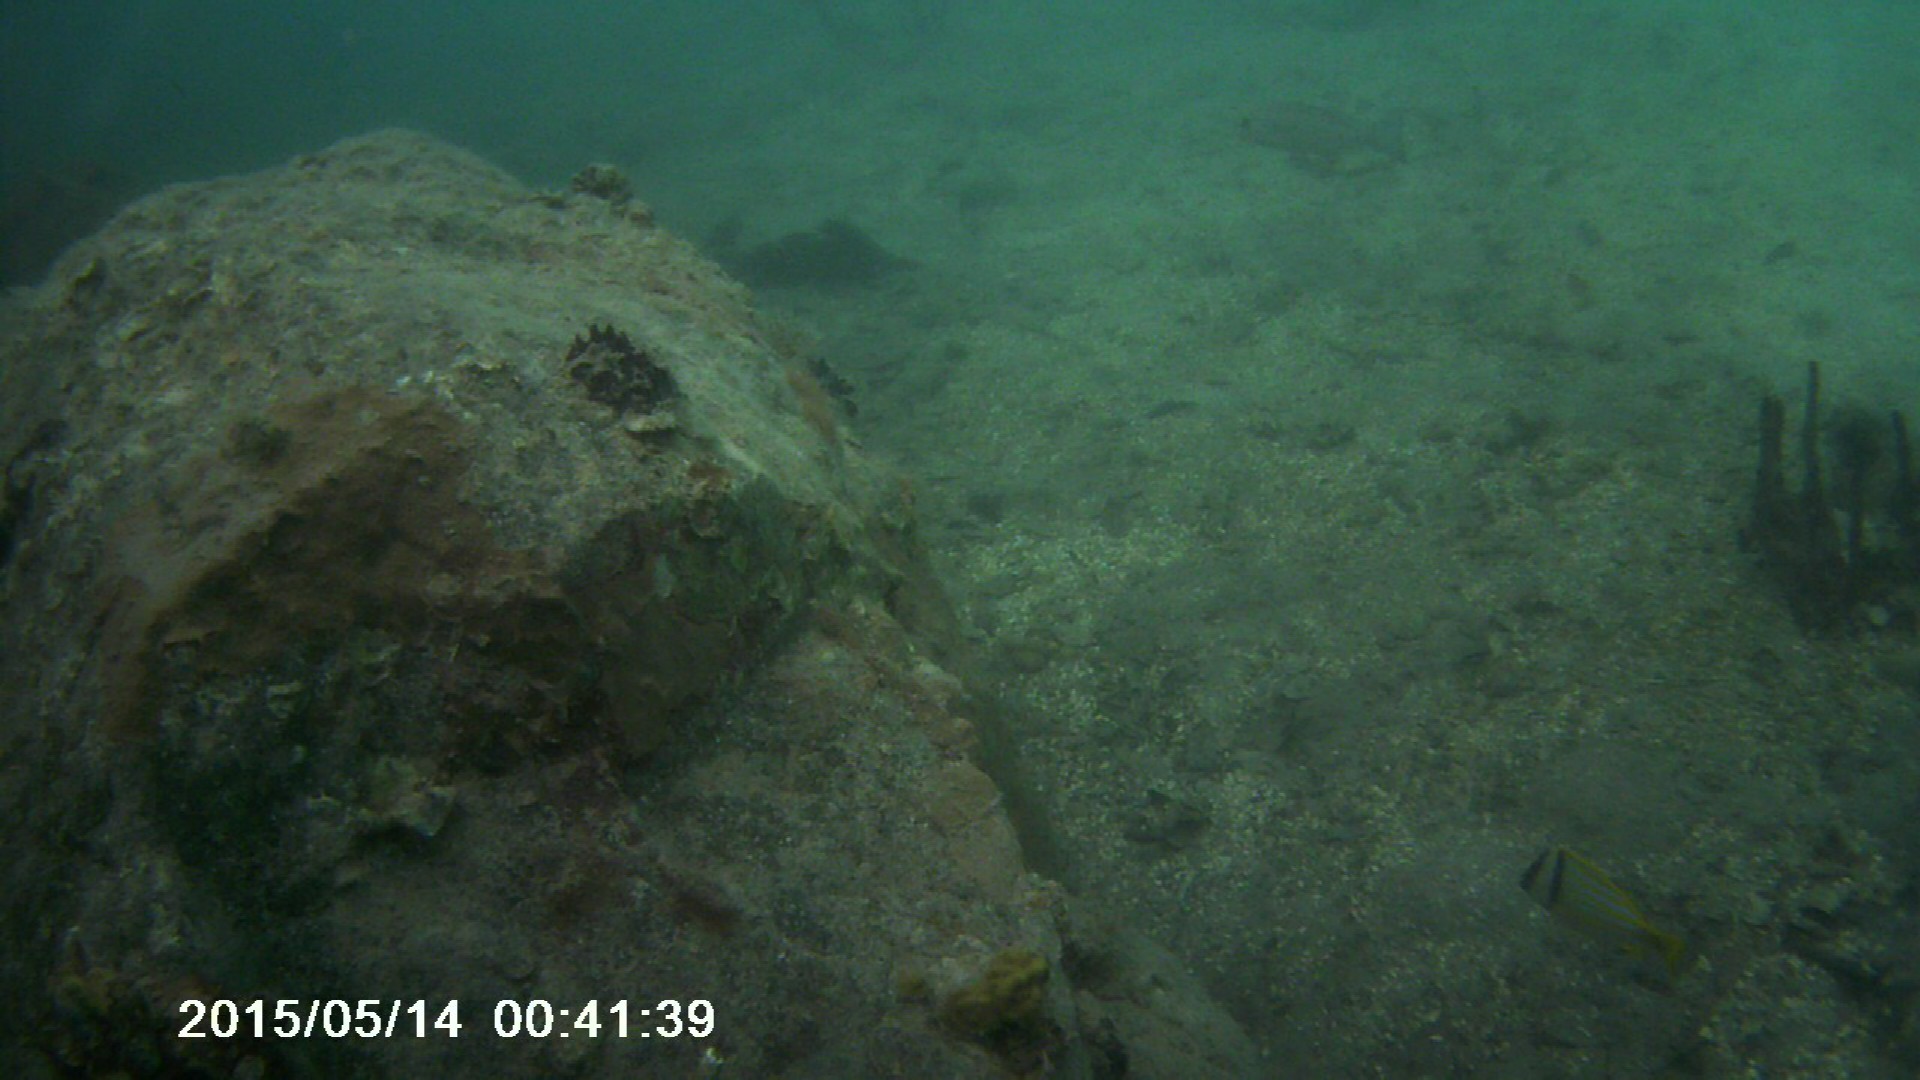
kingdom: Animalia
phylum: Chordata
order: Perciformes
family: Haemulidae
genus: Anisotremus
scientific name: Anisotremus virginicus
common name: Porkfish
